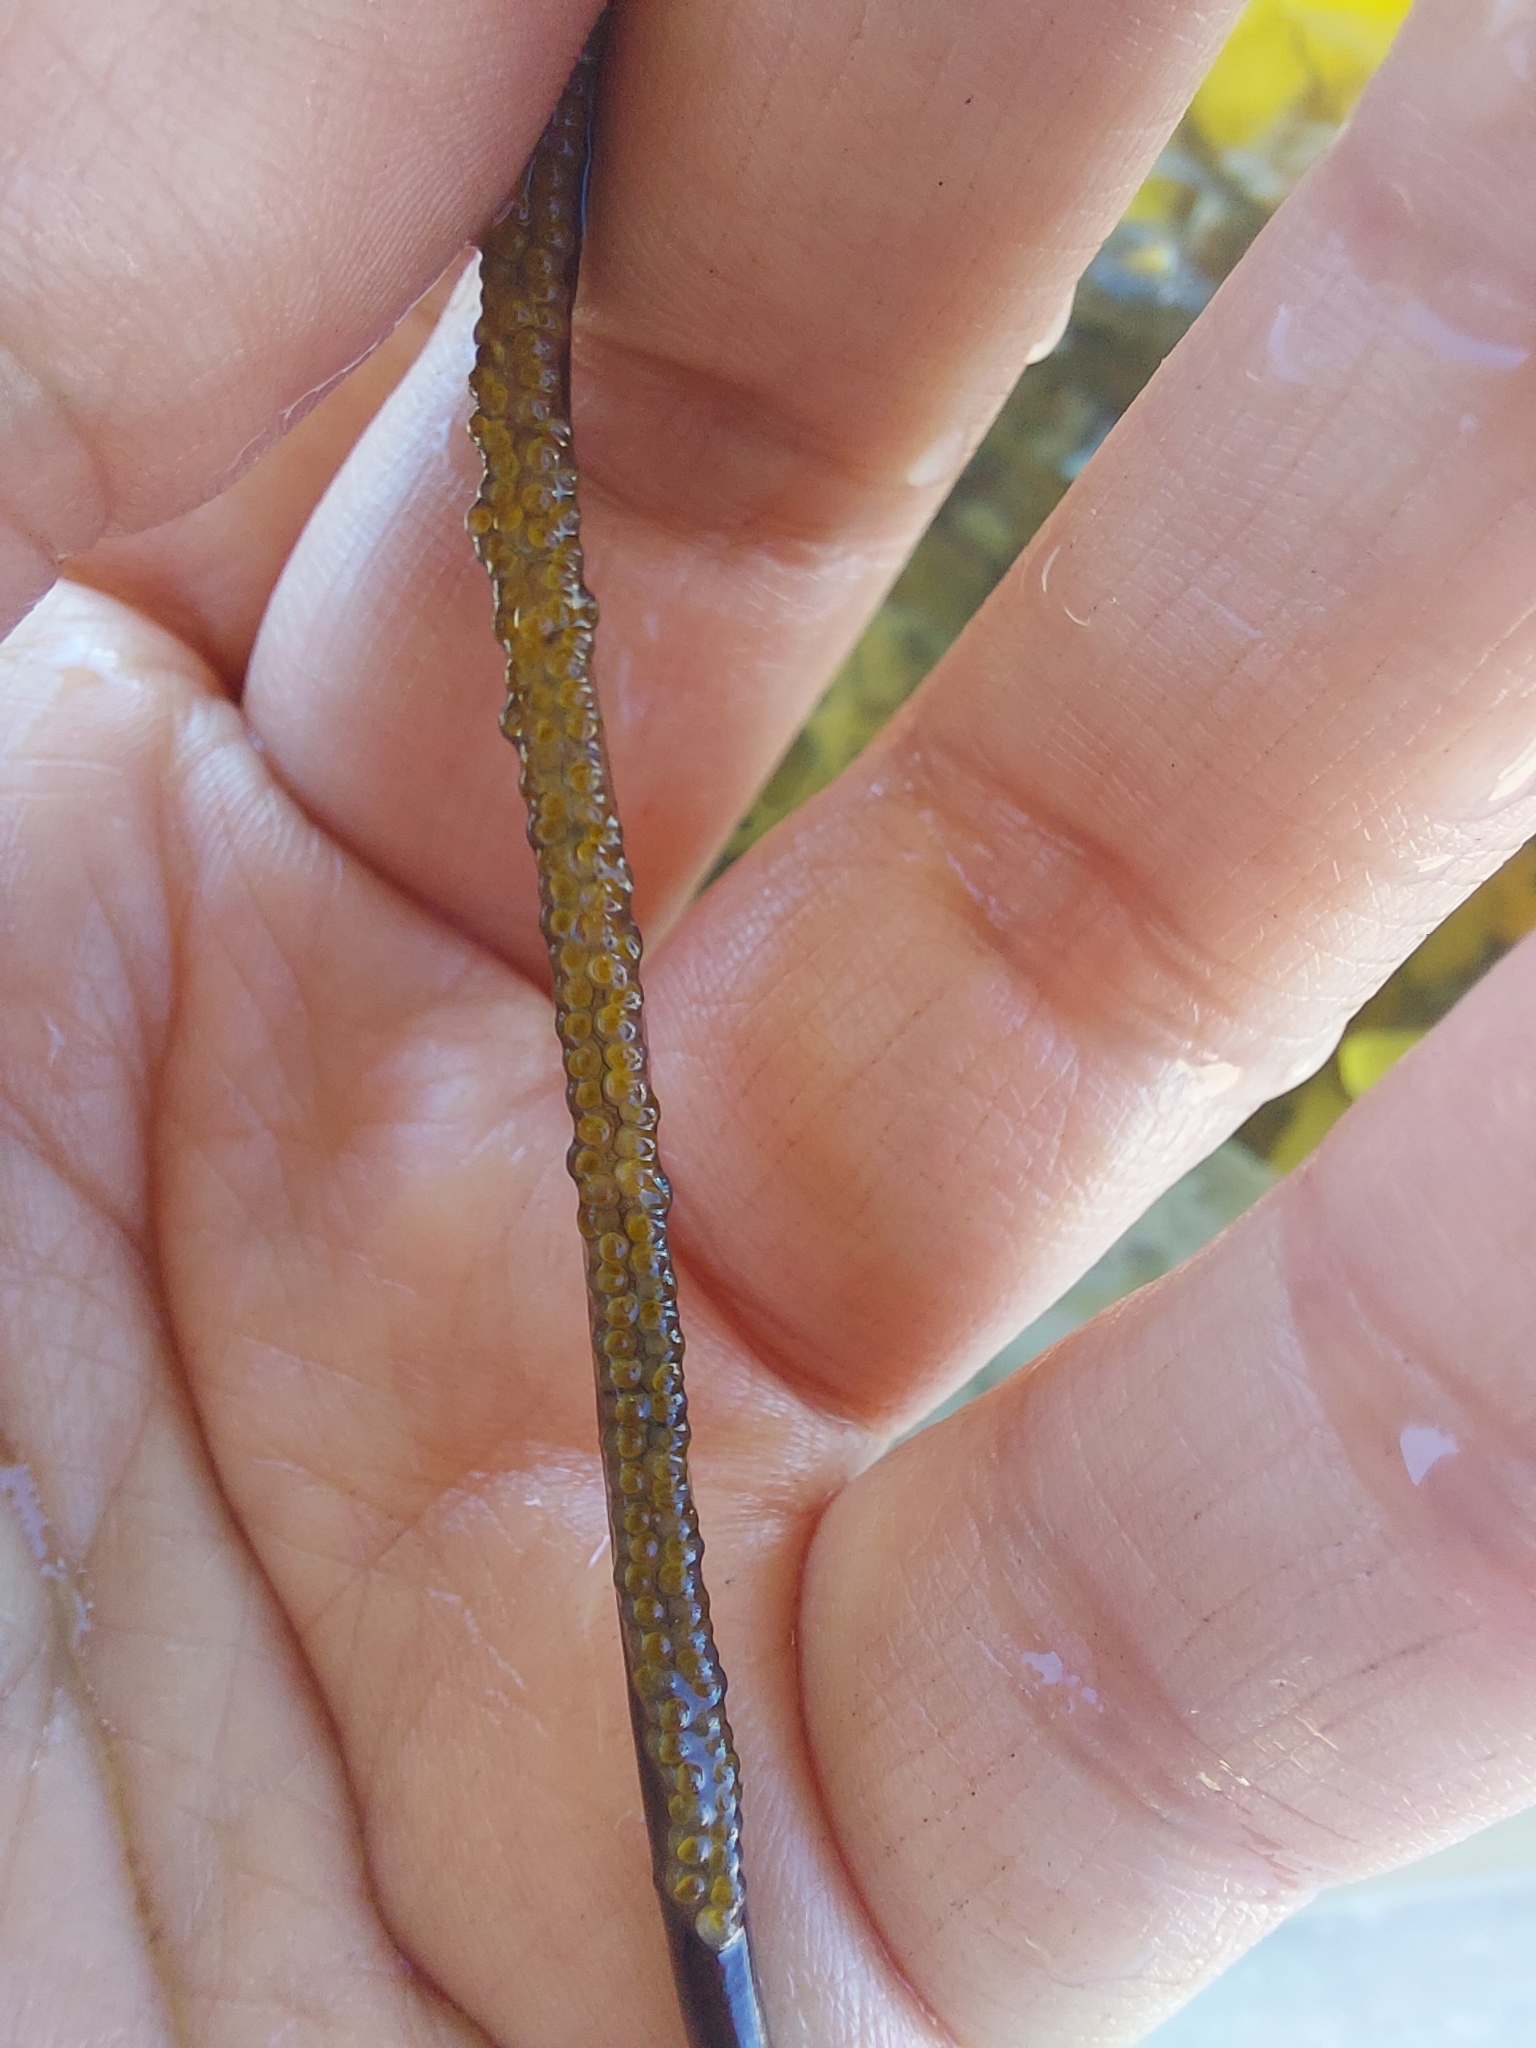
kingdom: Animalia
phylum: Chordata
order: Syngnathiformes
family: Syngnathidae
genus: Nerophis
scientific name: Nerophis ophidion
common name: Straight-nosed pipefish
